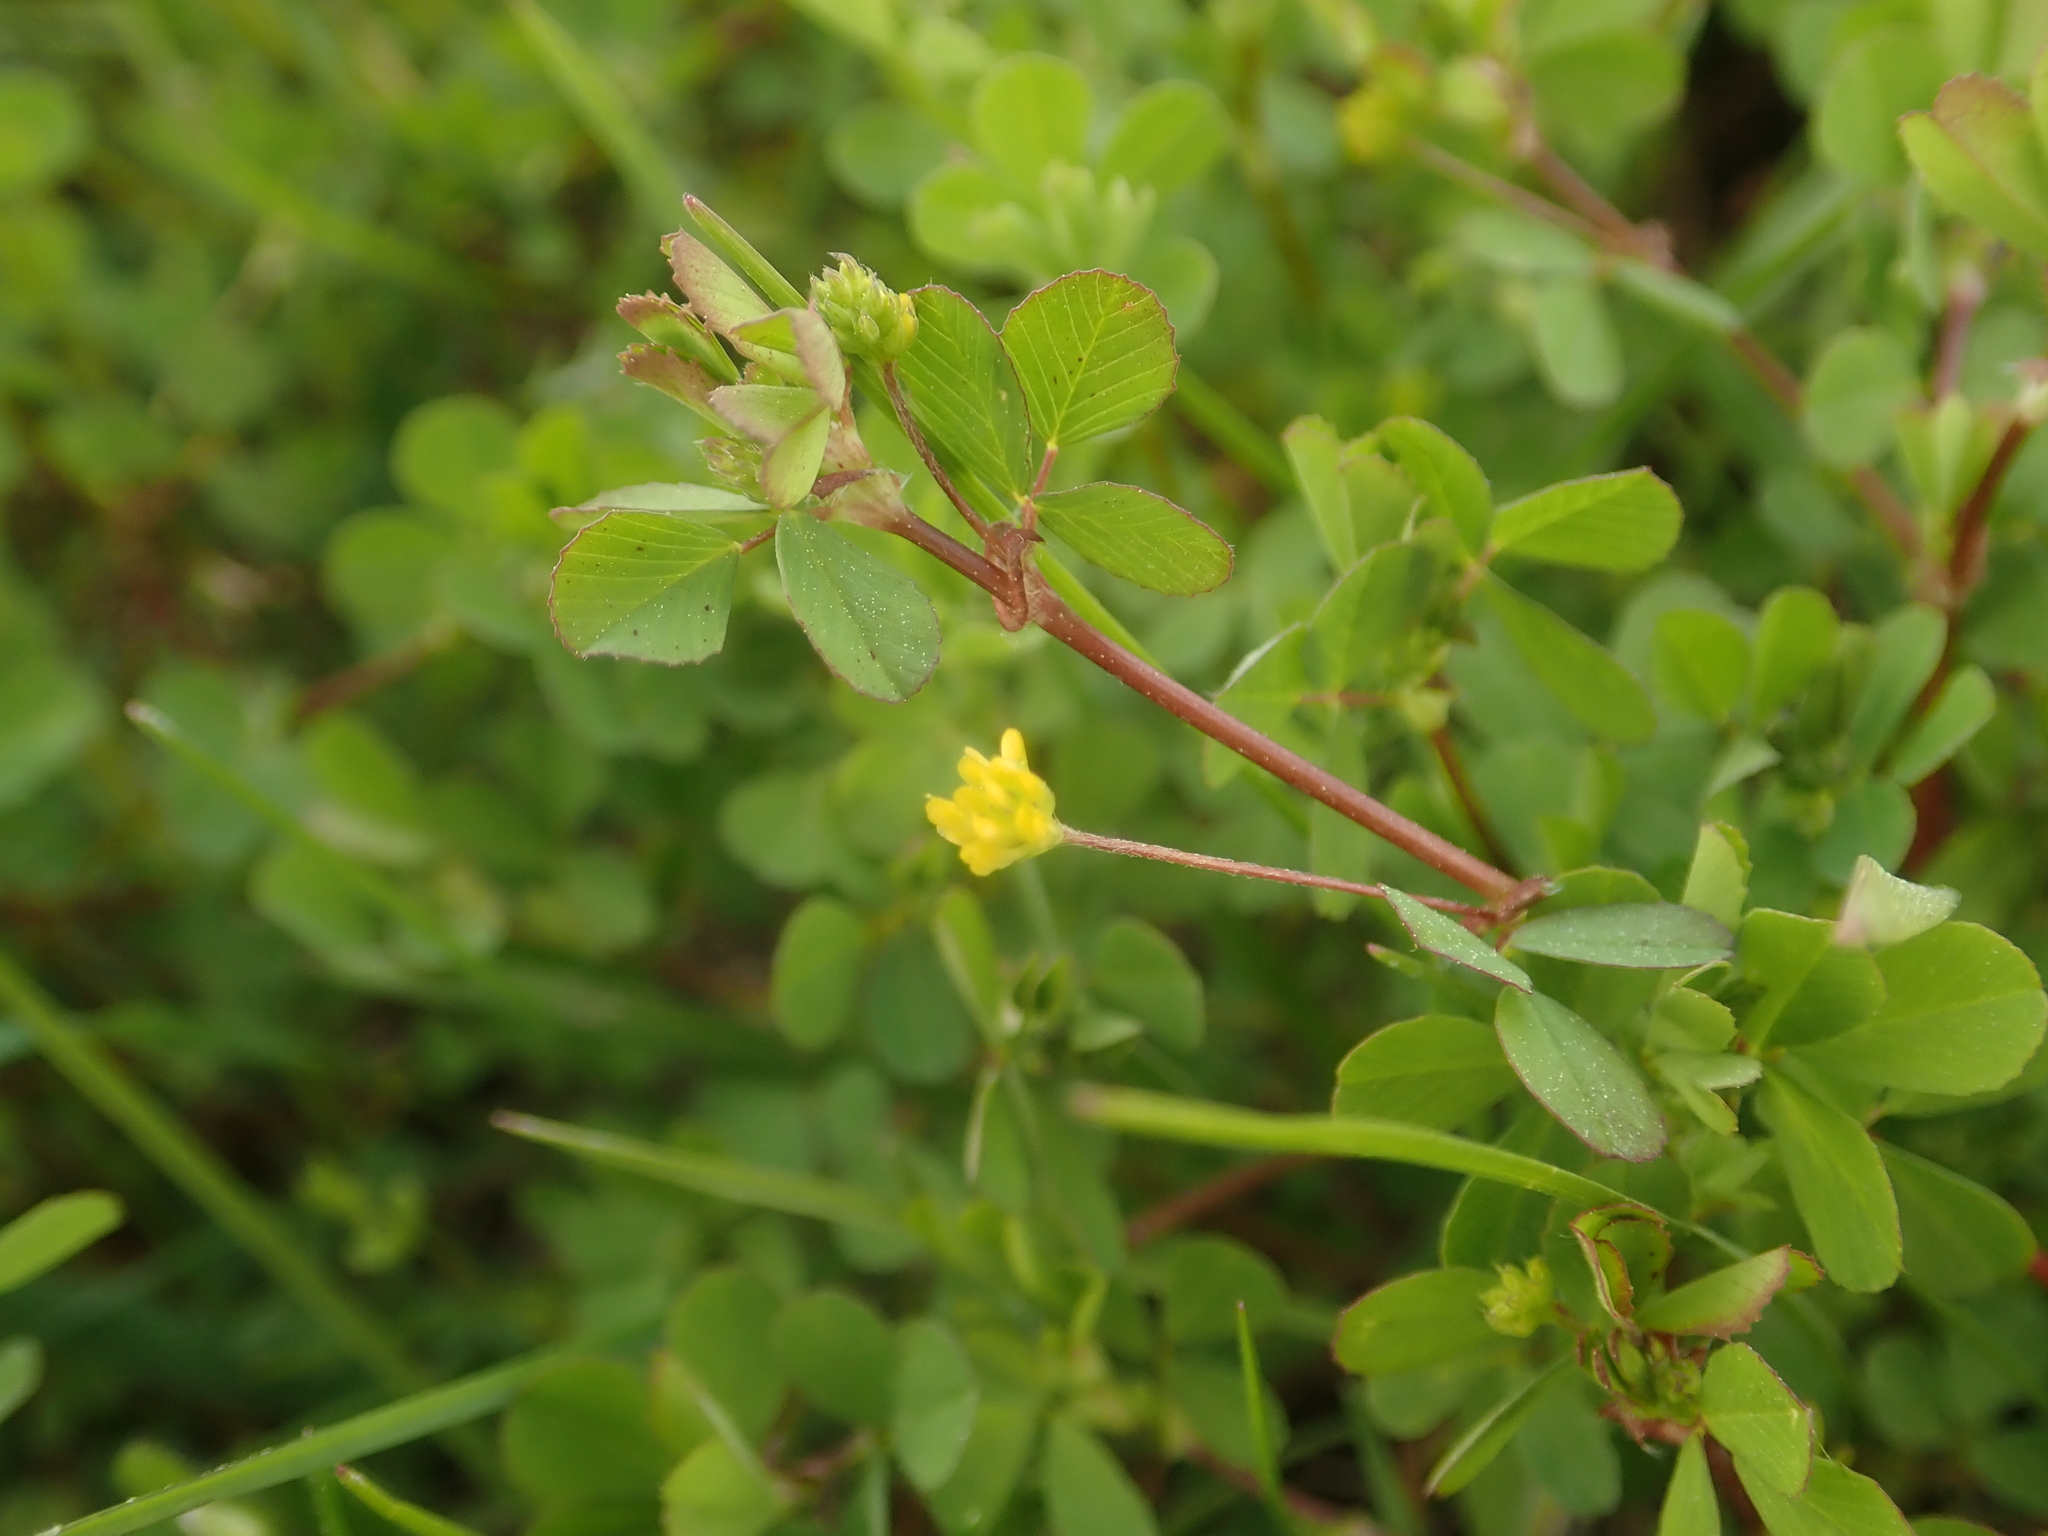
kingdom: Plantae
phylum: Tracheophyta
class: Magnoliopsida
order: Fabales
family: Fabaceae
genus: Trifolium
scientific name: Trifolium dubium
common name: Suckling clover
